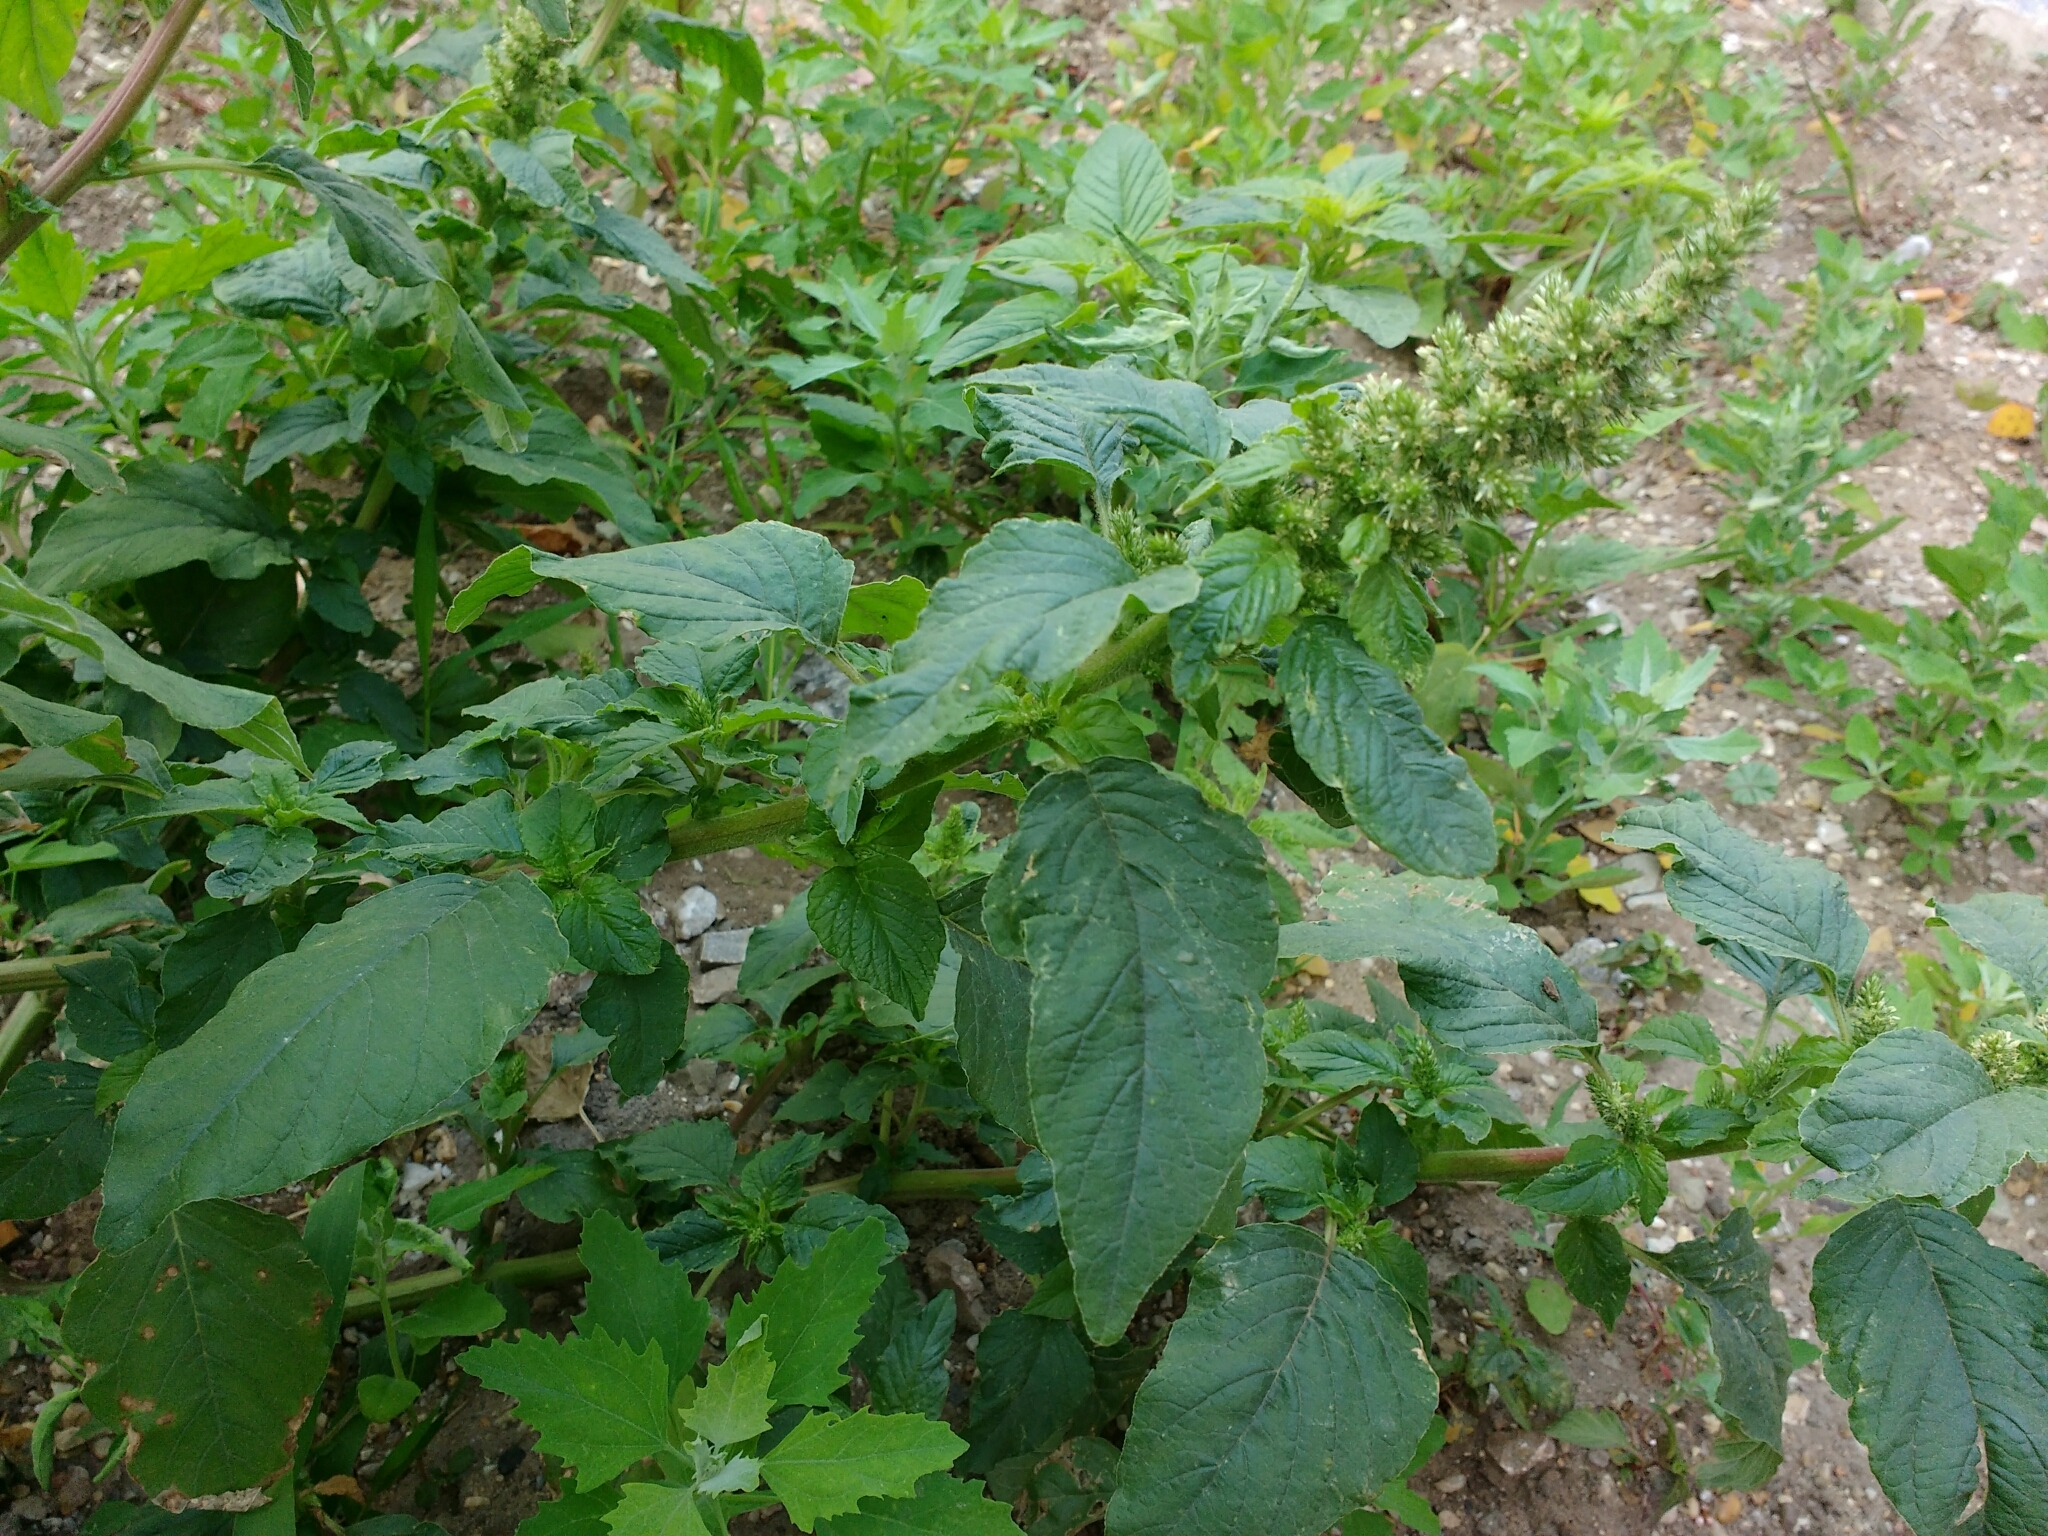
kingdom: Plantae
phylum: Tracheophyta
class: Magnoliopsida
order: Caryophyllales
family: Amaranthaceae
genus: Amaranthus
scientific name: Amaranthus retroflexus
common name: Redroot amaranth
